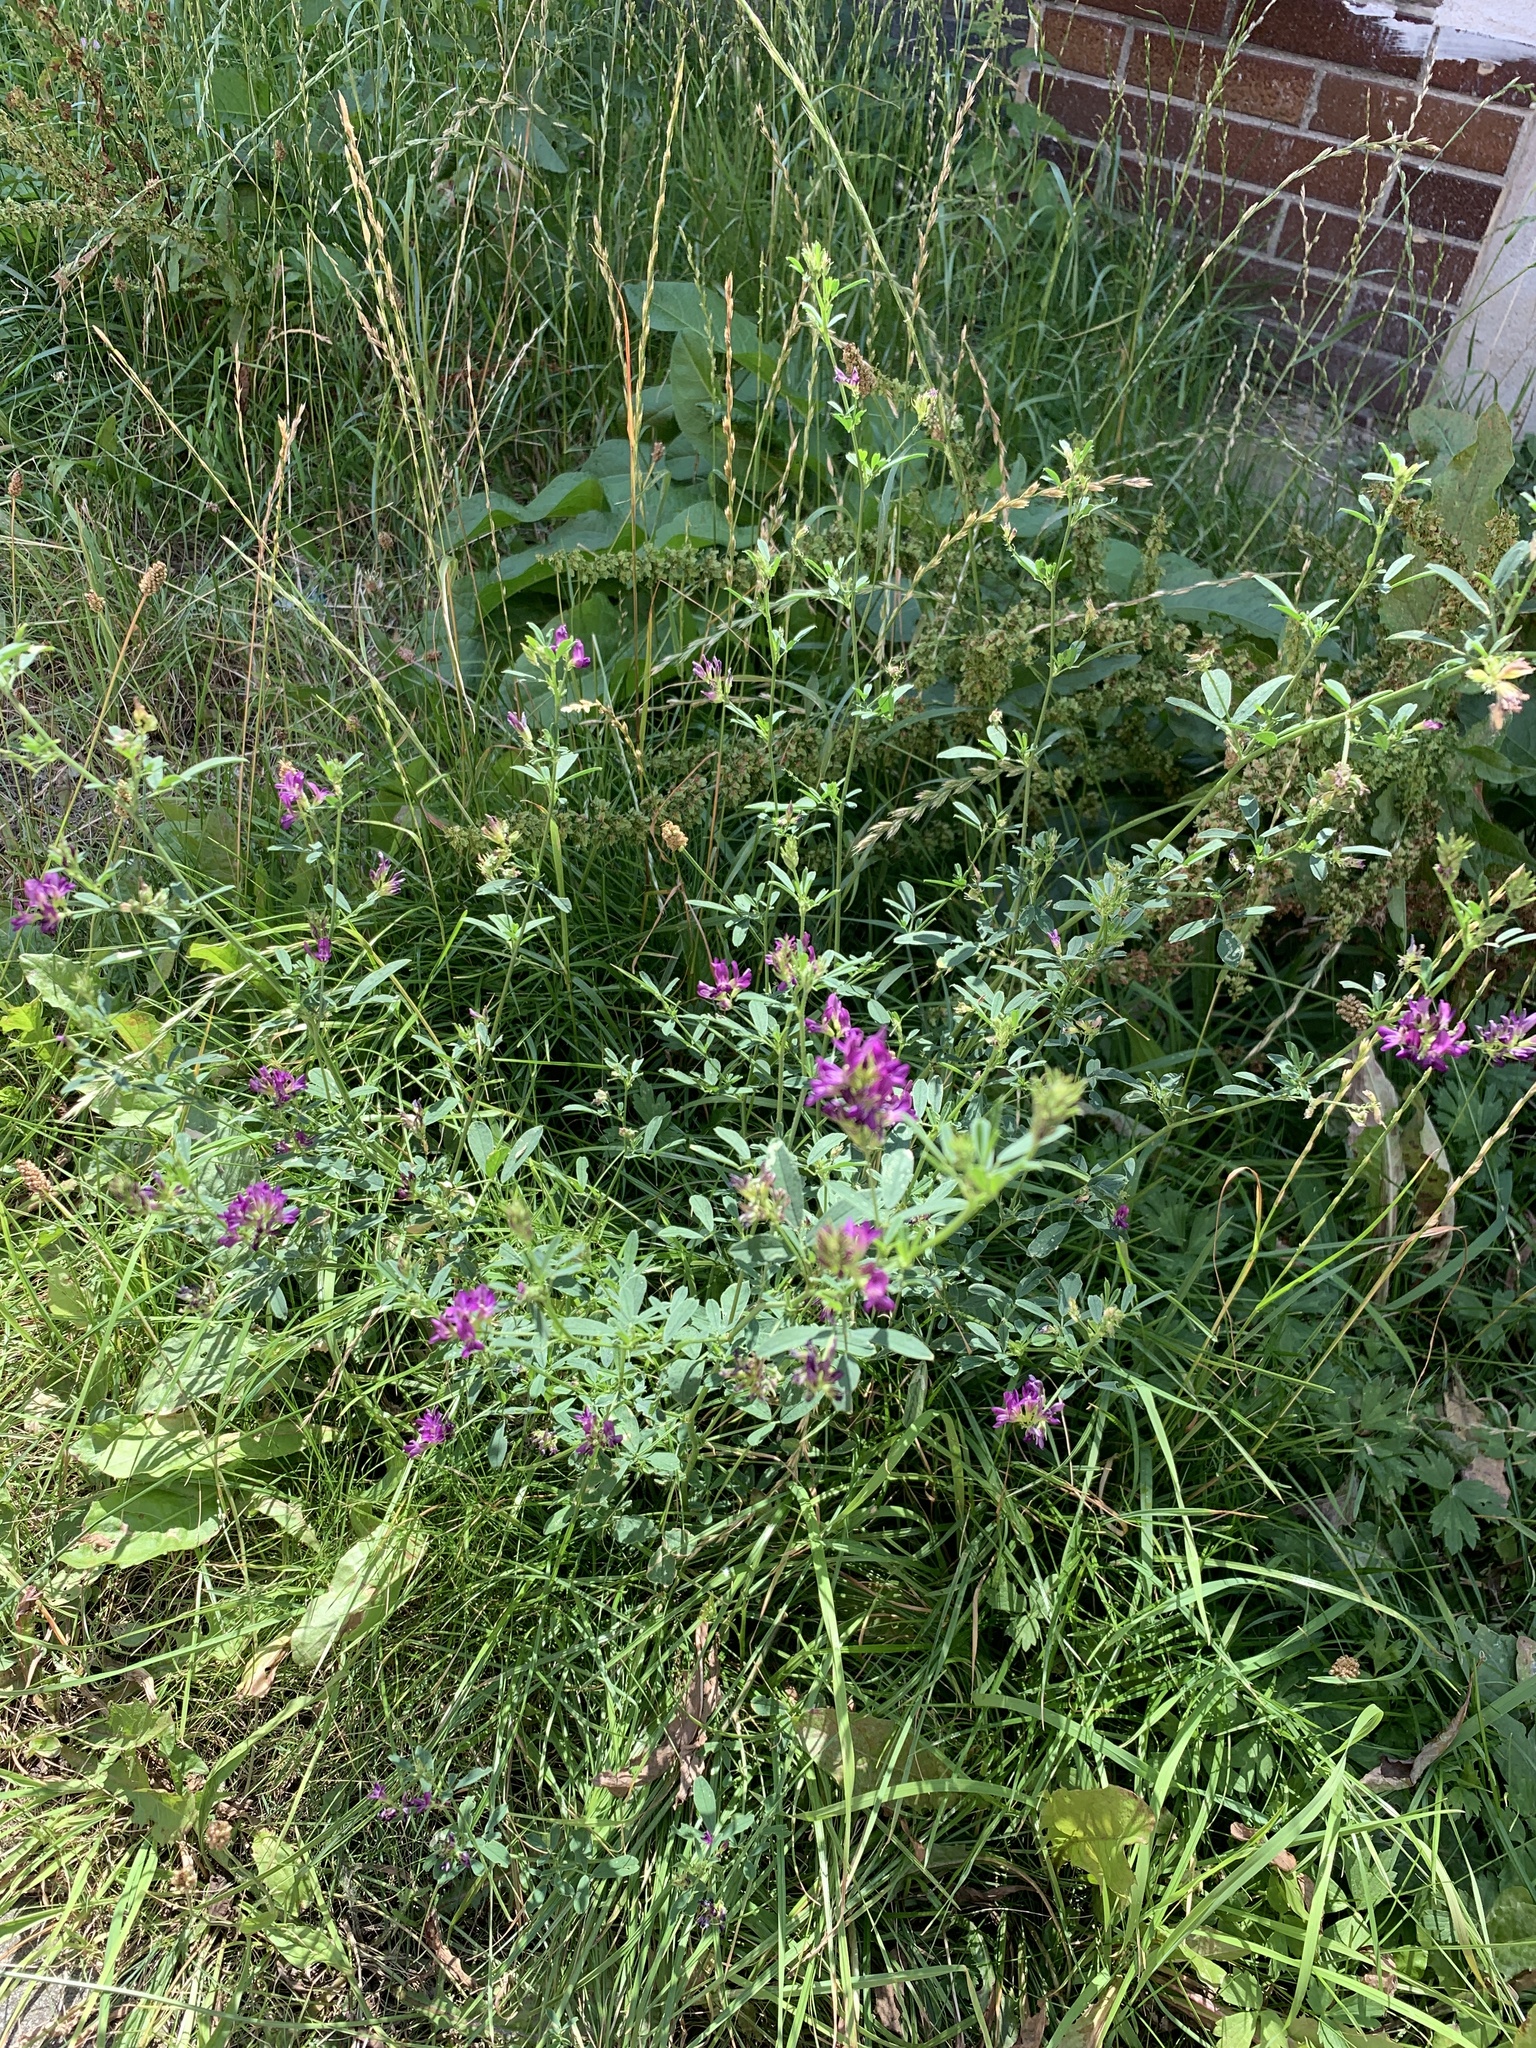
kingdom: Plantae
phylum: Tracheophyta
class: Magnoliopsida
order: Fabales
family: Fabaceae
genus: Medicago
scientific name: Medicago sativa
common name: Alfalfa
